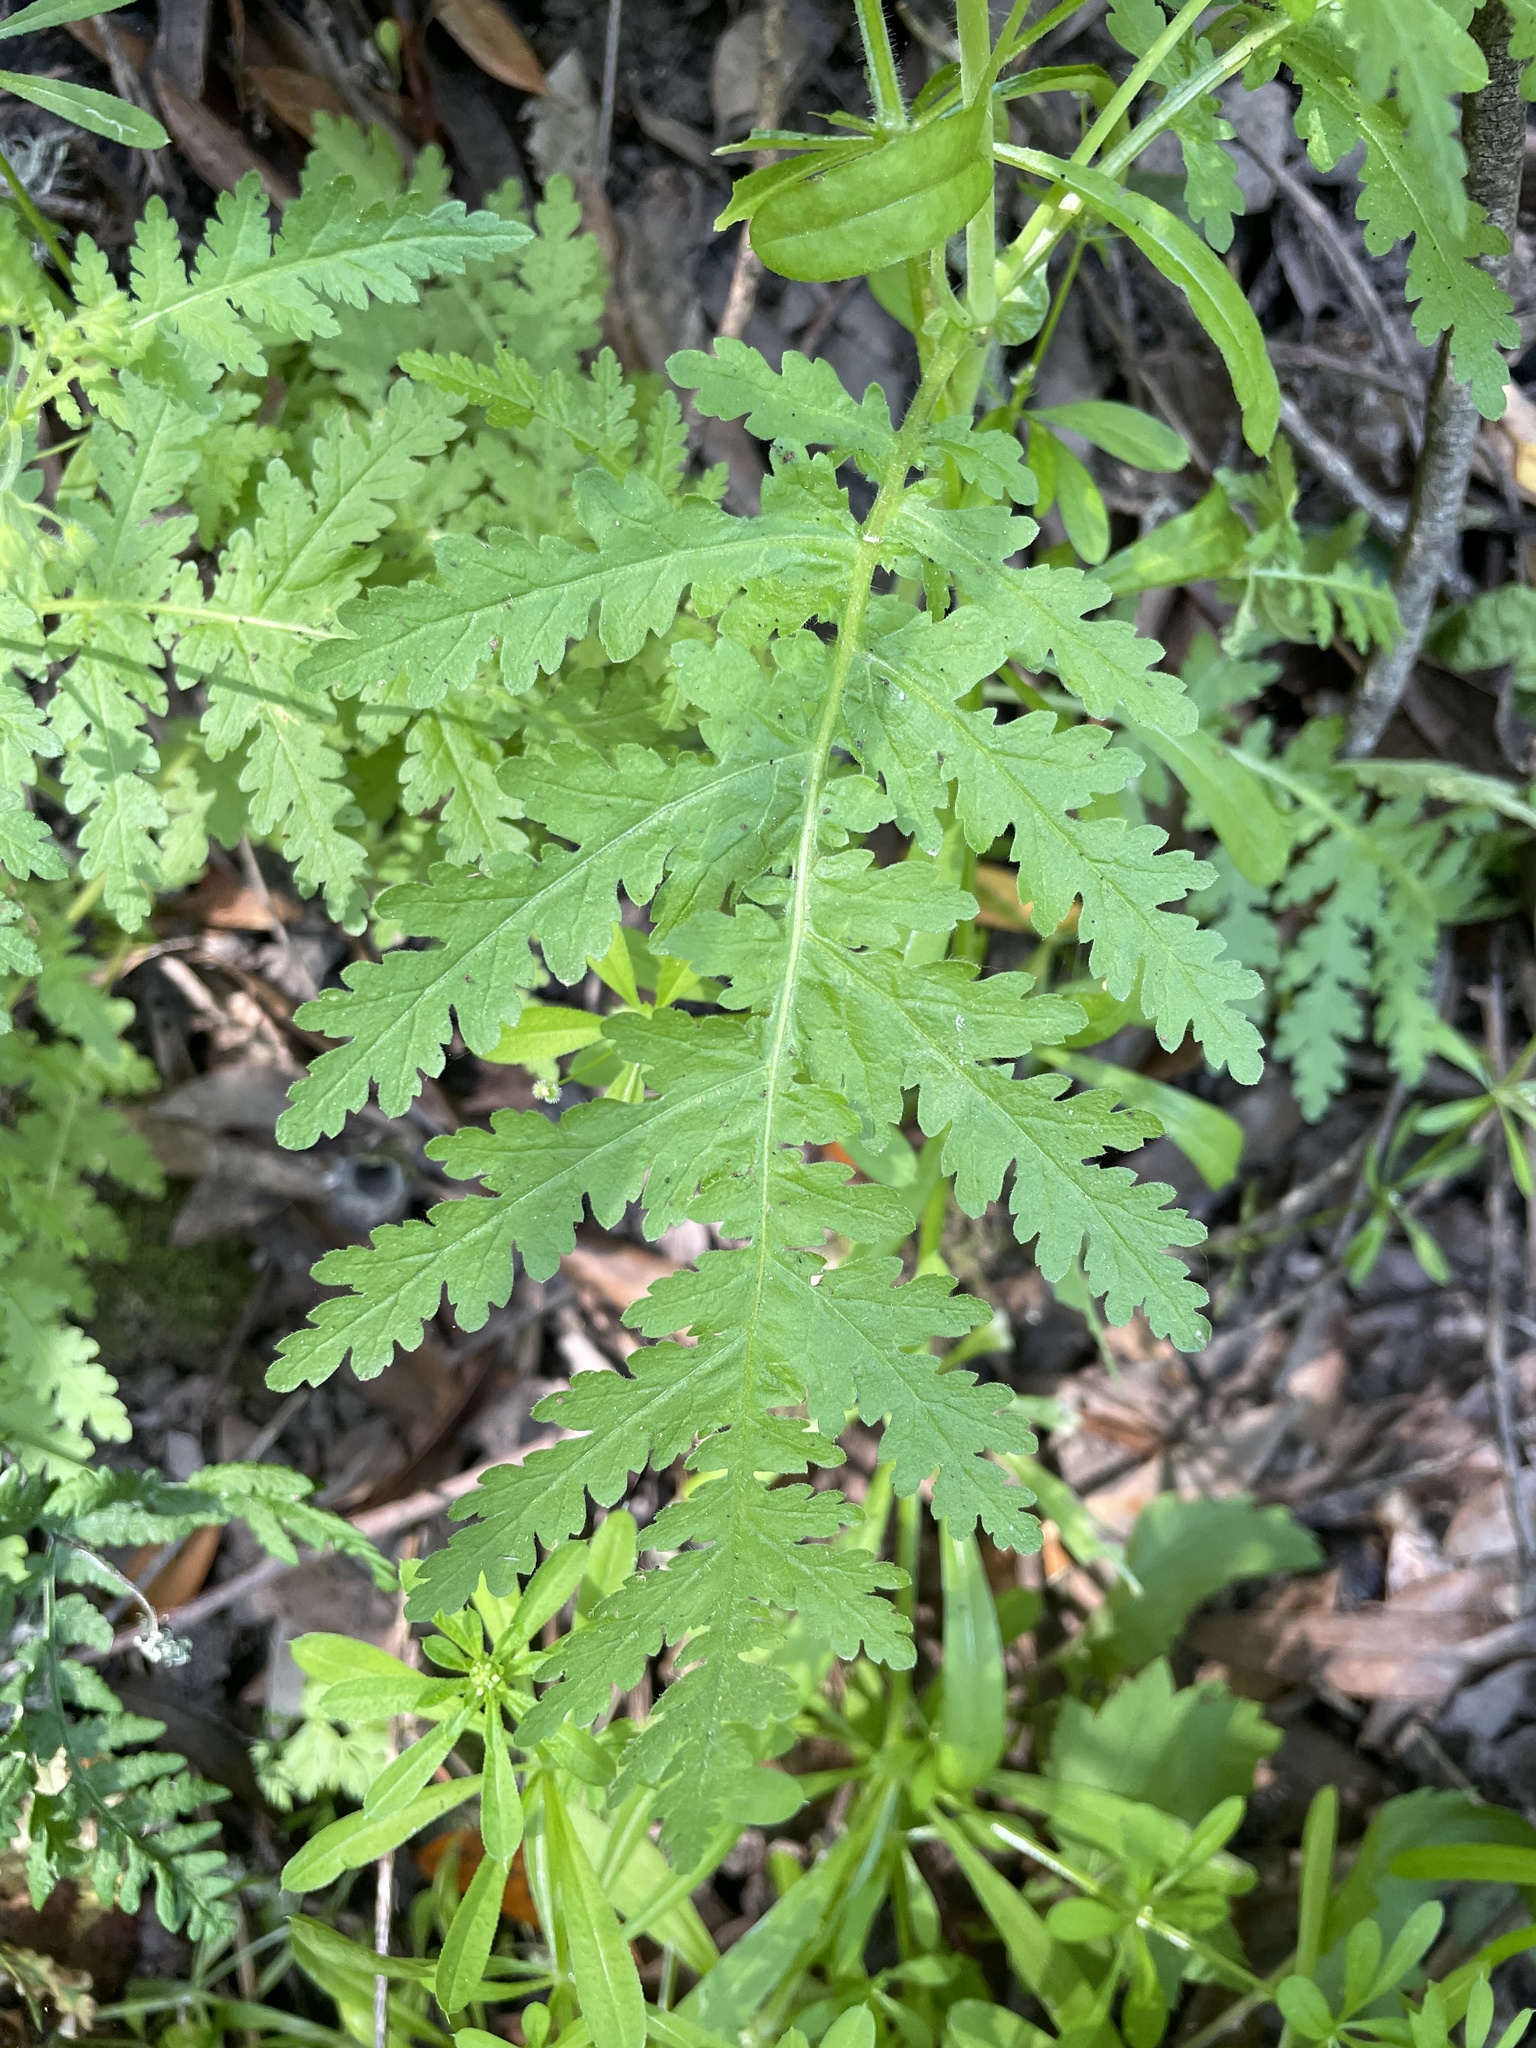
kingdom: Plantae
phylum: Tracheophyta
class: Magnoliopsida
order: Boraginales
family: Hydrophyllaceae
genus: Eucrypta
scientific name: Eucrypta chrysanthemifolia
